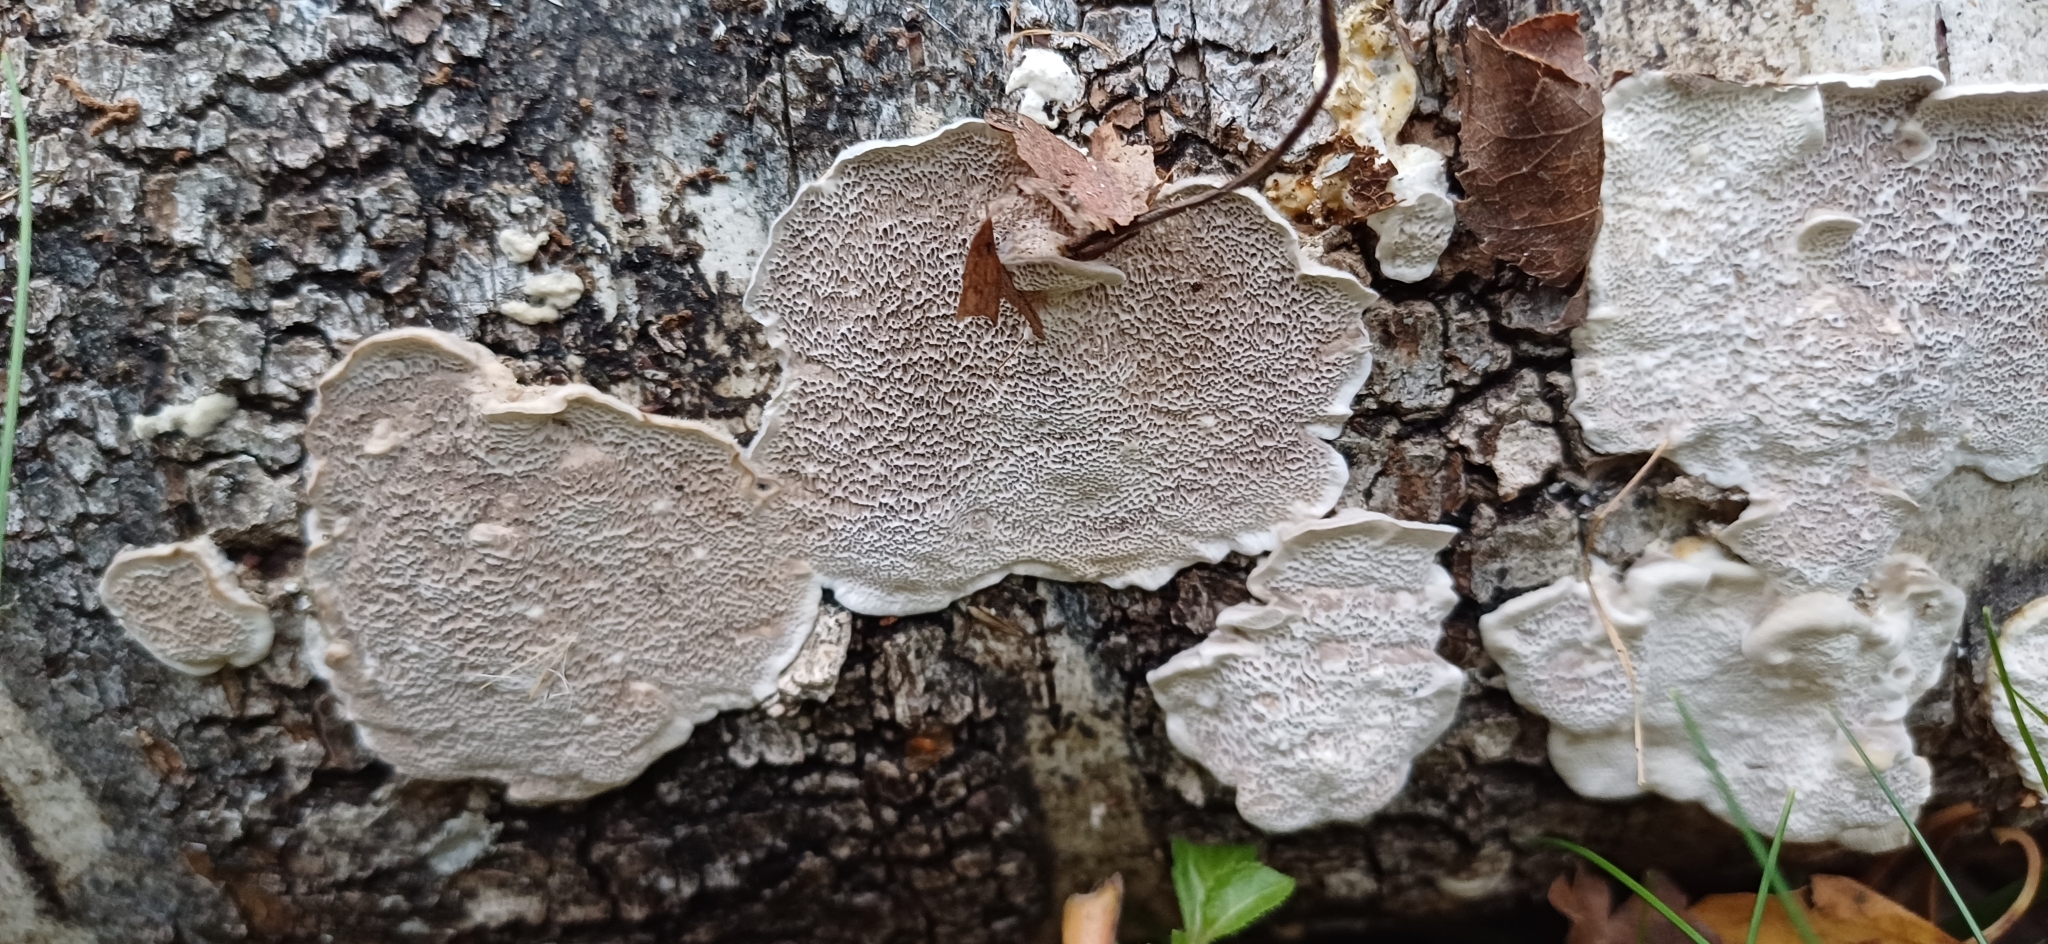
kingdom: Fungi
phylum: Basidiomycota
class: Agaricomycetes
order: Polyporales
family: Polyporaceae
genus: Podofomes
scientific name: Podofomes mollis
